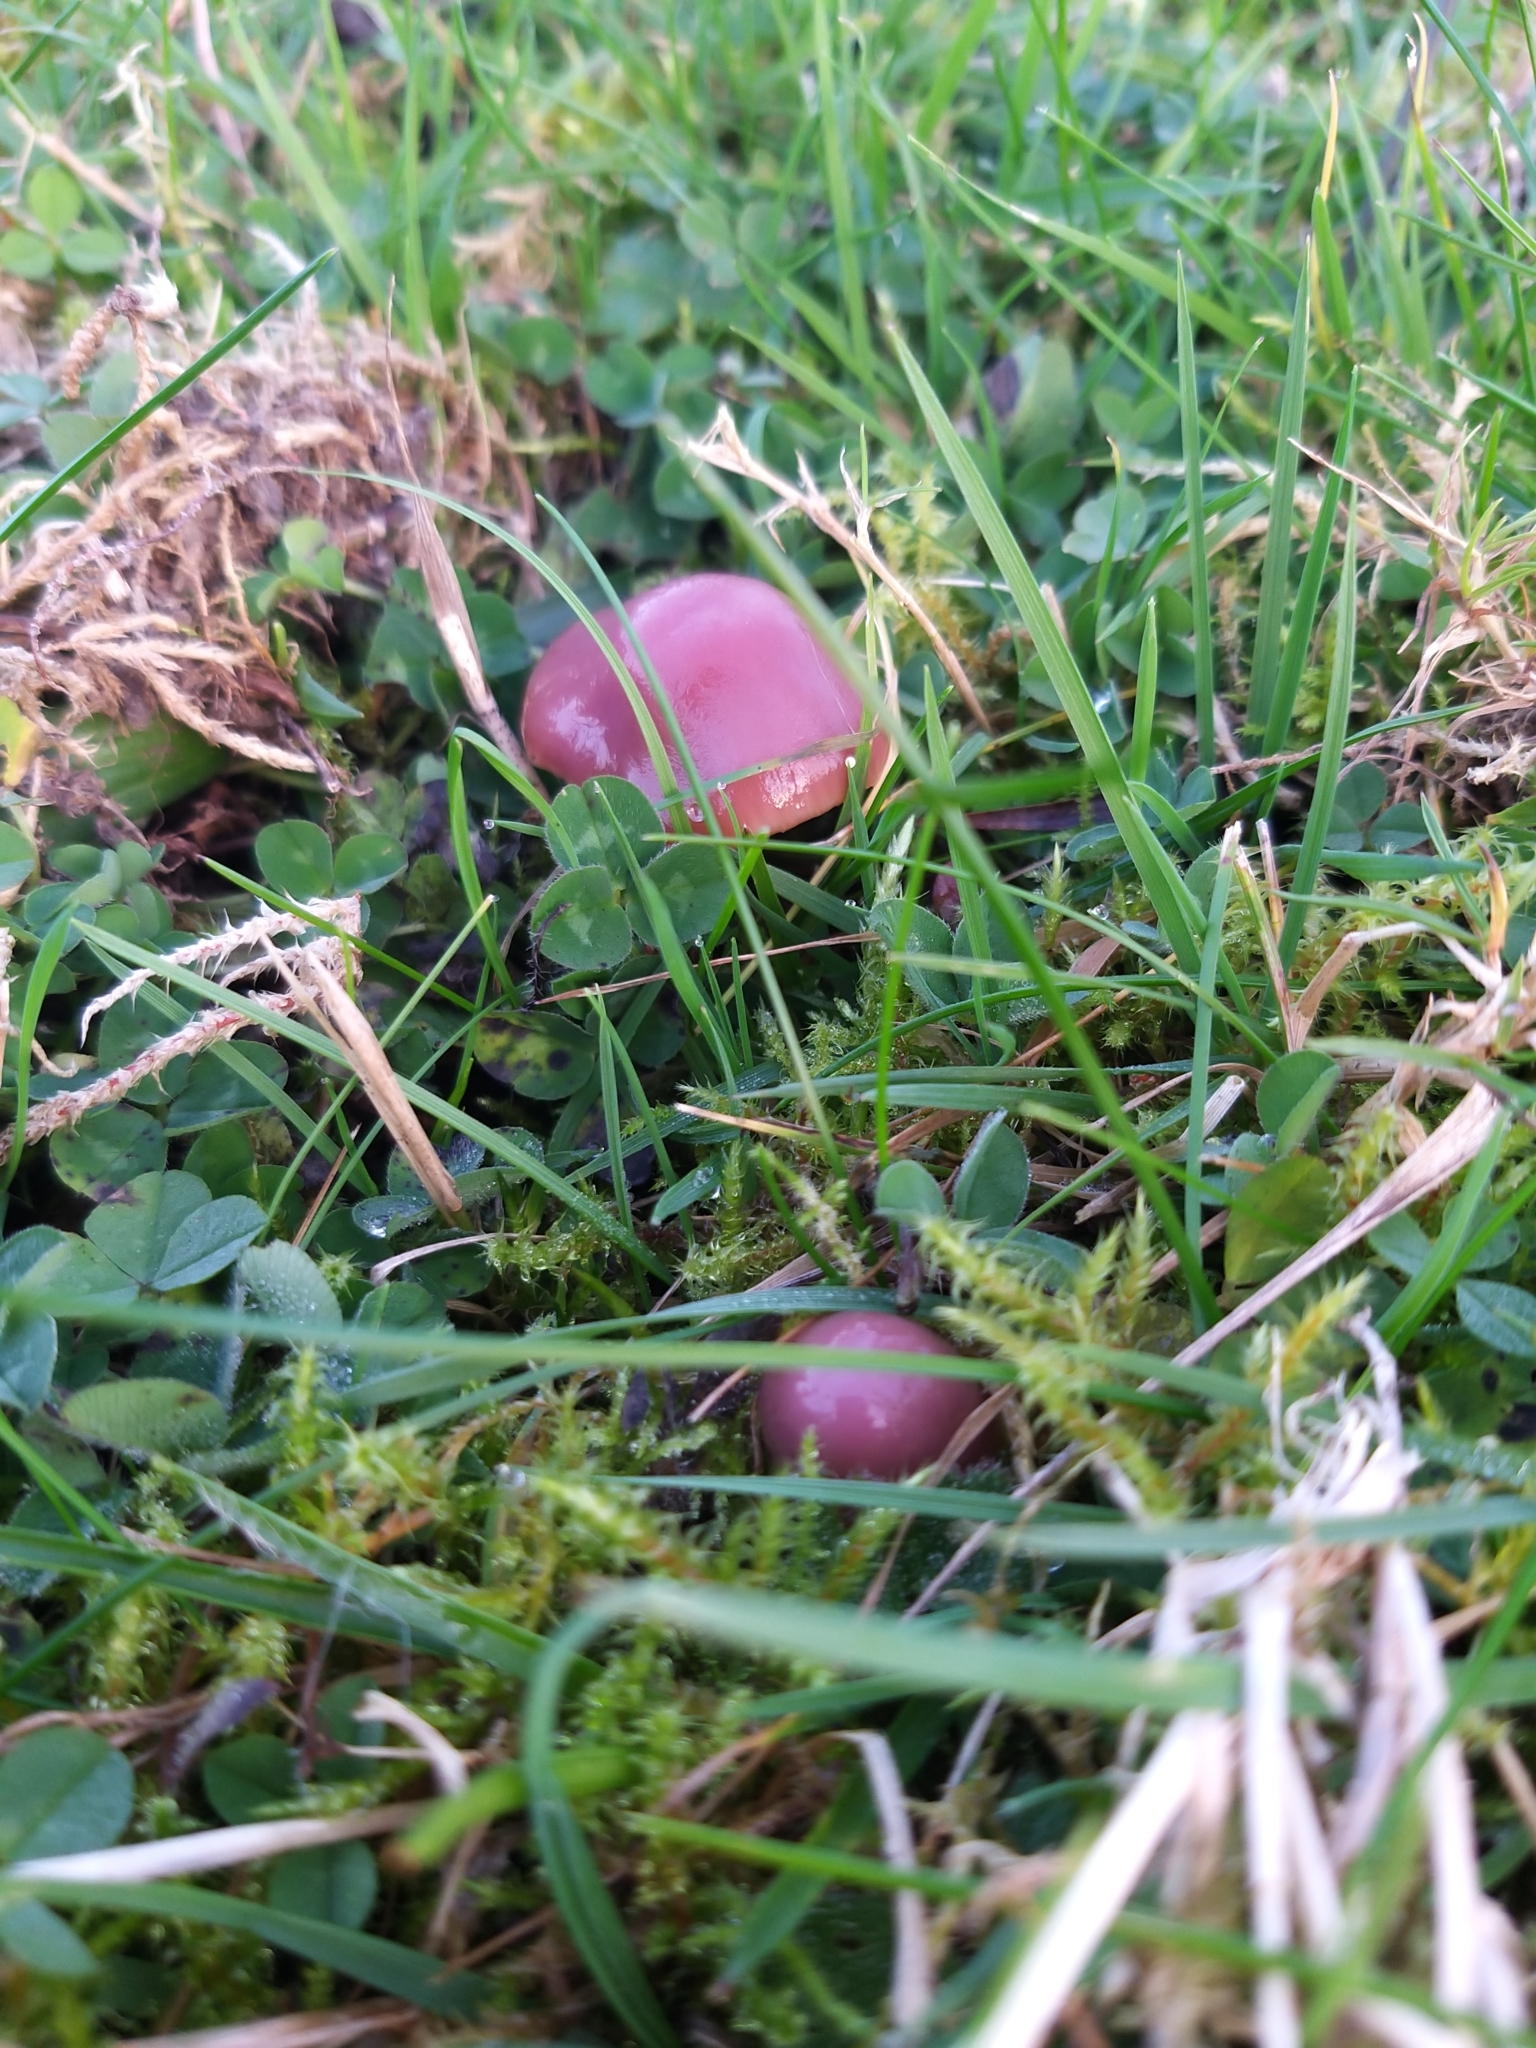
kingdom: Fungi
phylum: Basidiomycota
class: Agaricomycetes
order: Agaricales
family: Hygrophoraceae
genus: Gliophorus
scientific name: Gliophorus reginae
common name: Jubilee waxcap
